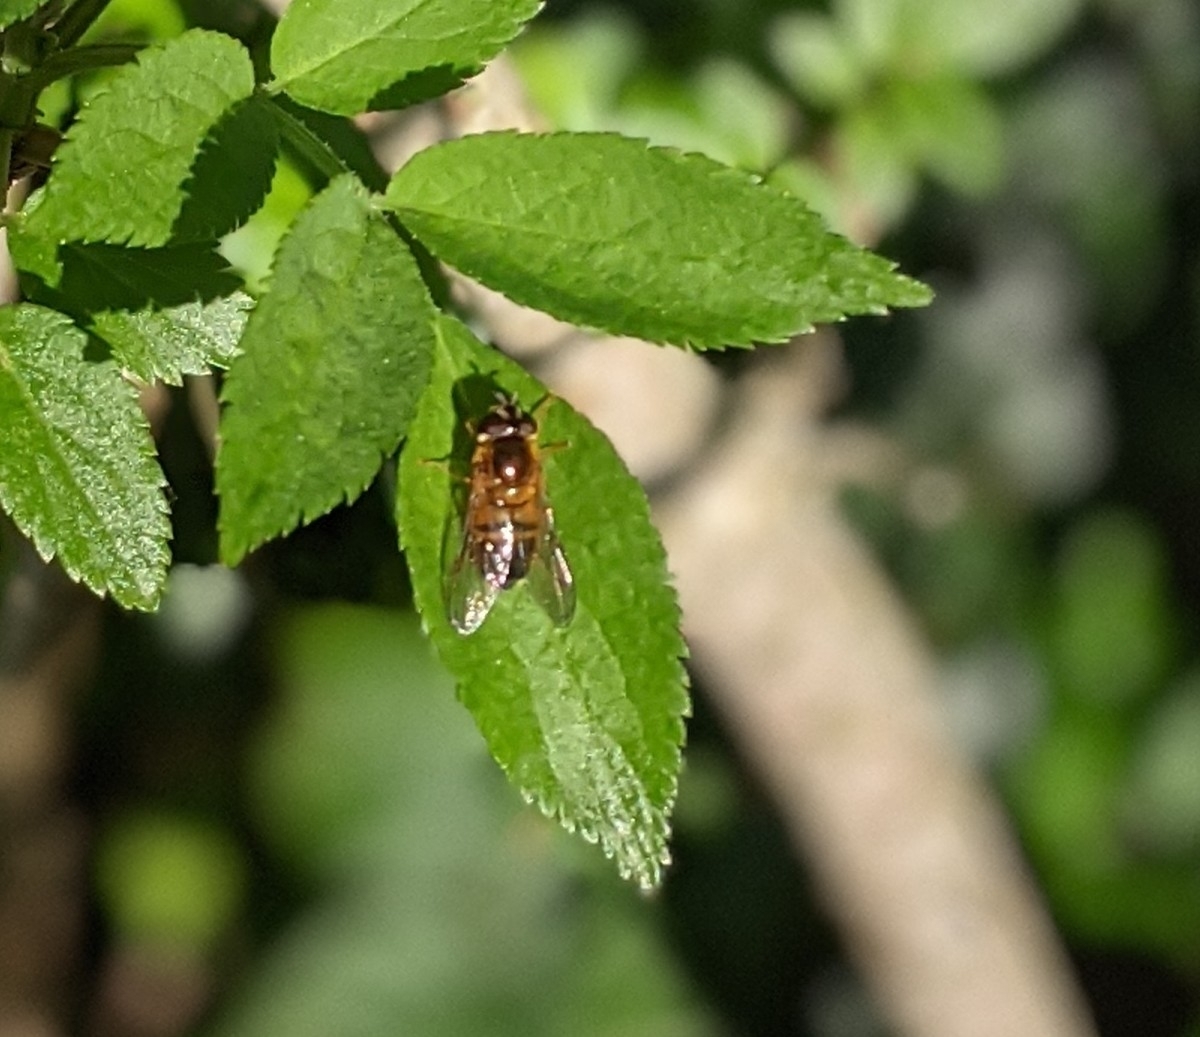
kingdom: Animalia
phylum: Arthropoda
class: Insecta
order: Diptera
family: Syrphidae
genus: Epistrophe
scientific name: Epistrophe eligans
